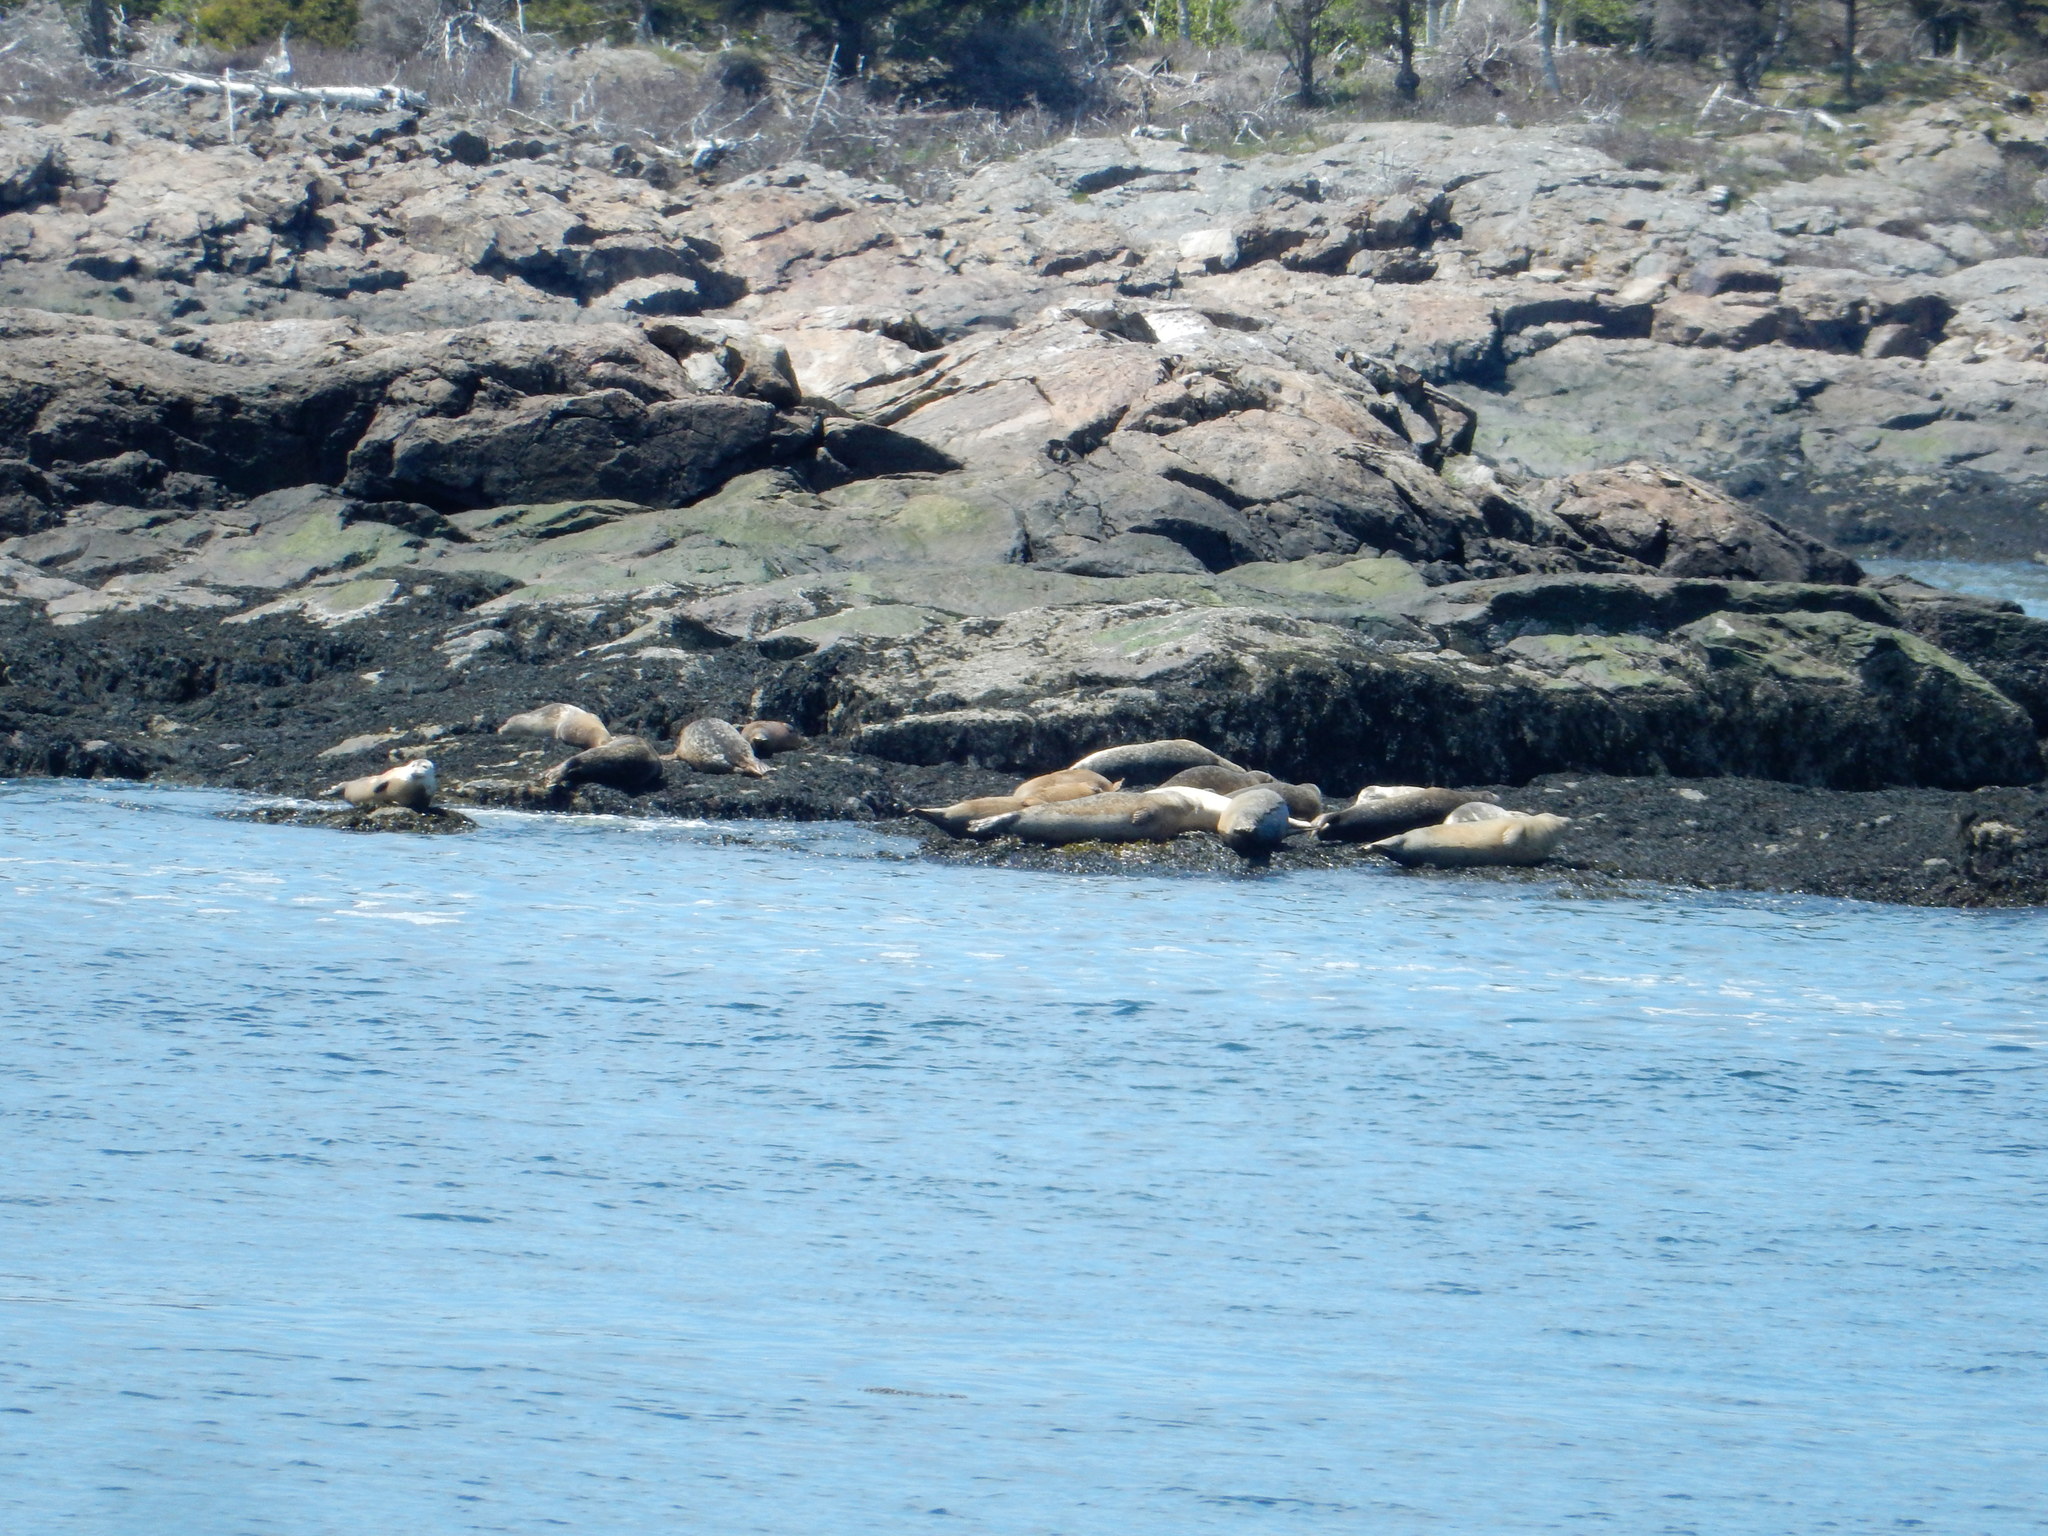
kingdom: Animalia
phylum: Chordata
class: Mammalia
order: Carnivora
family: Phocidae
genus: Phoca
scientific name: Phoca vitulina
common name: Harbor seal
